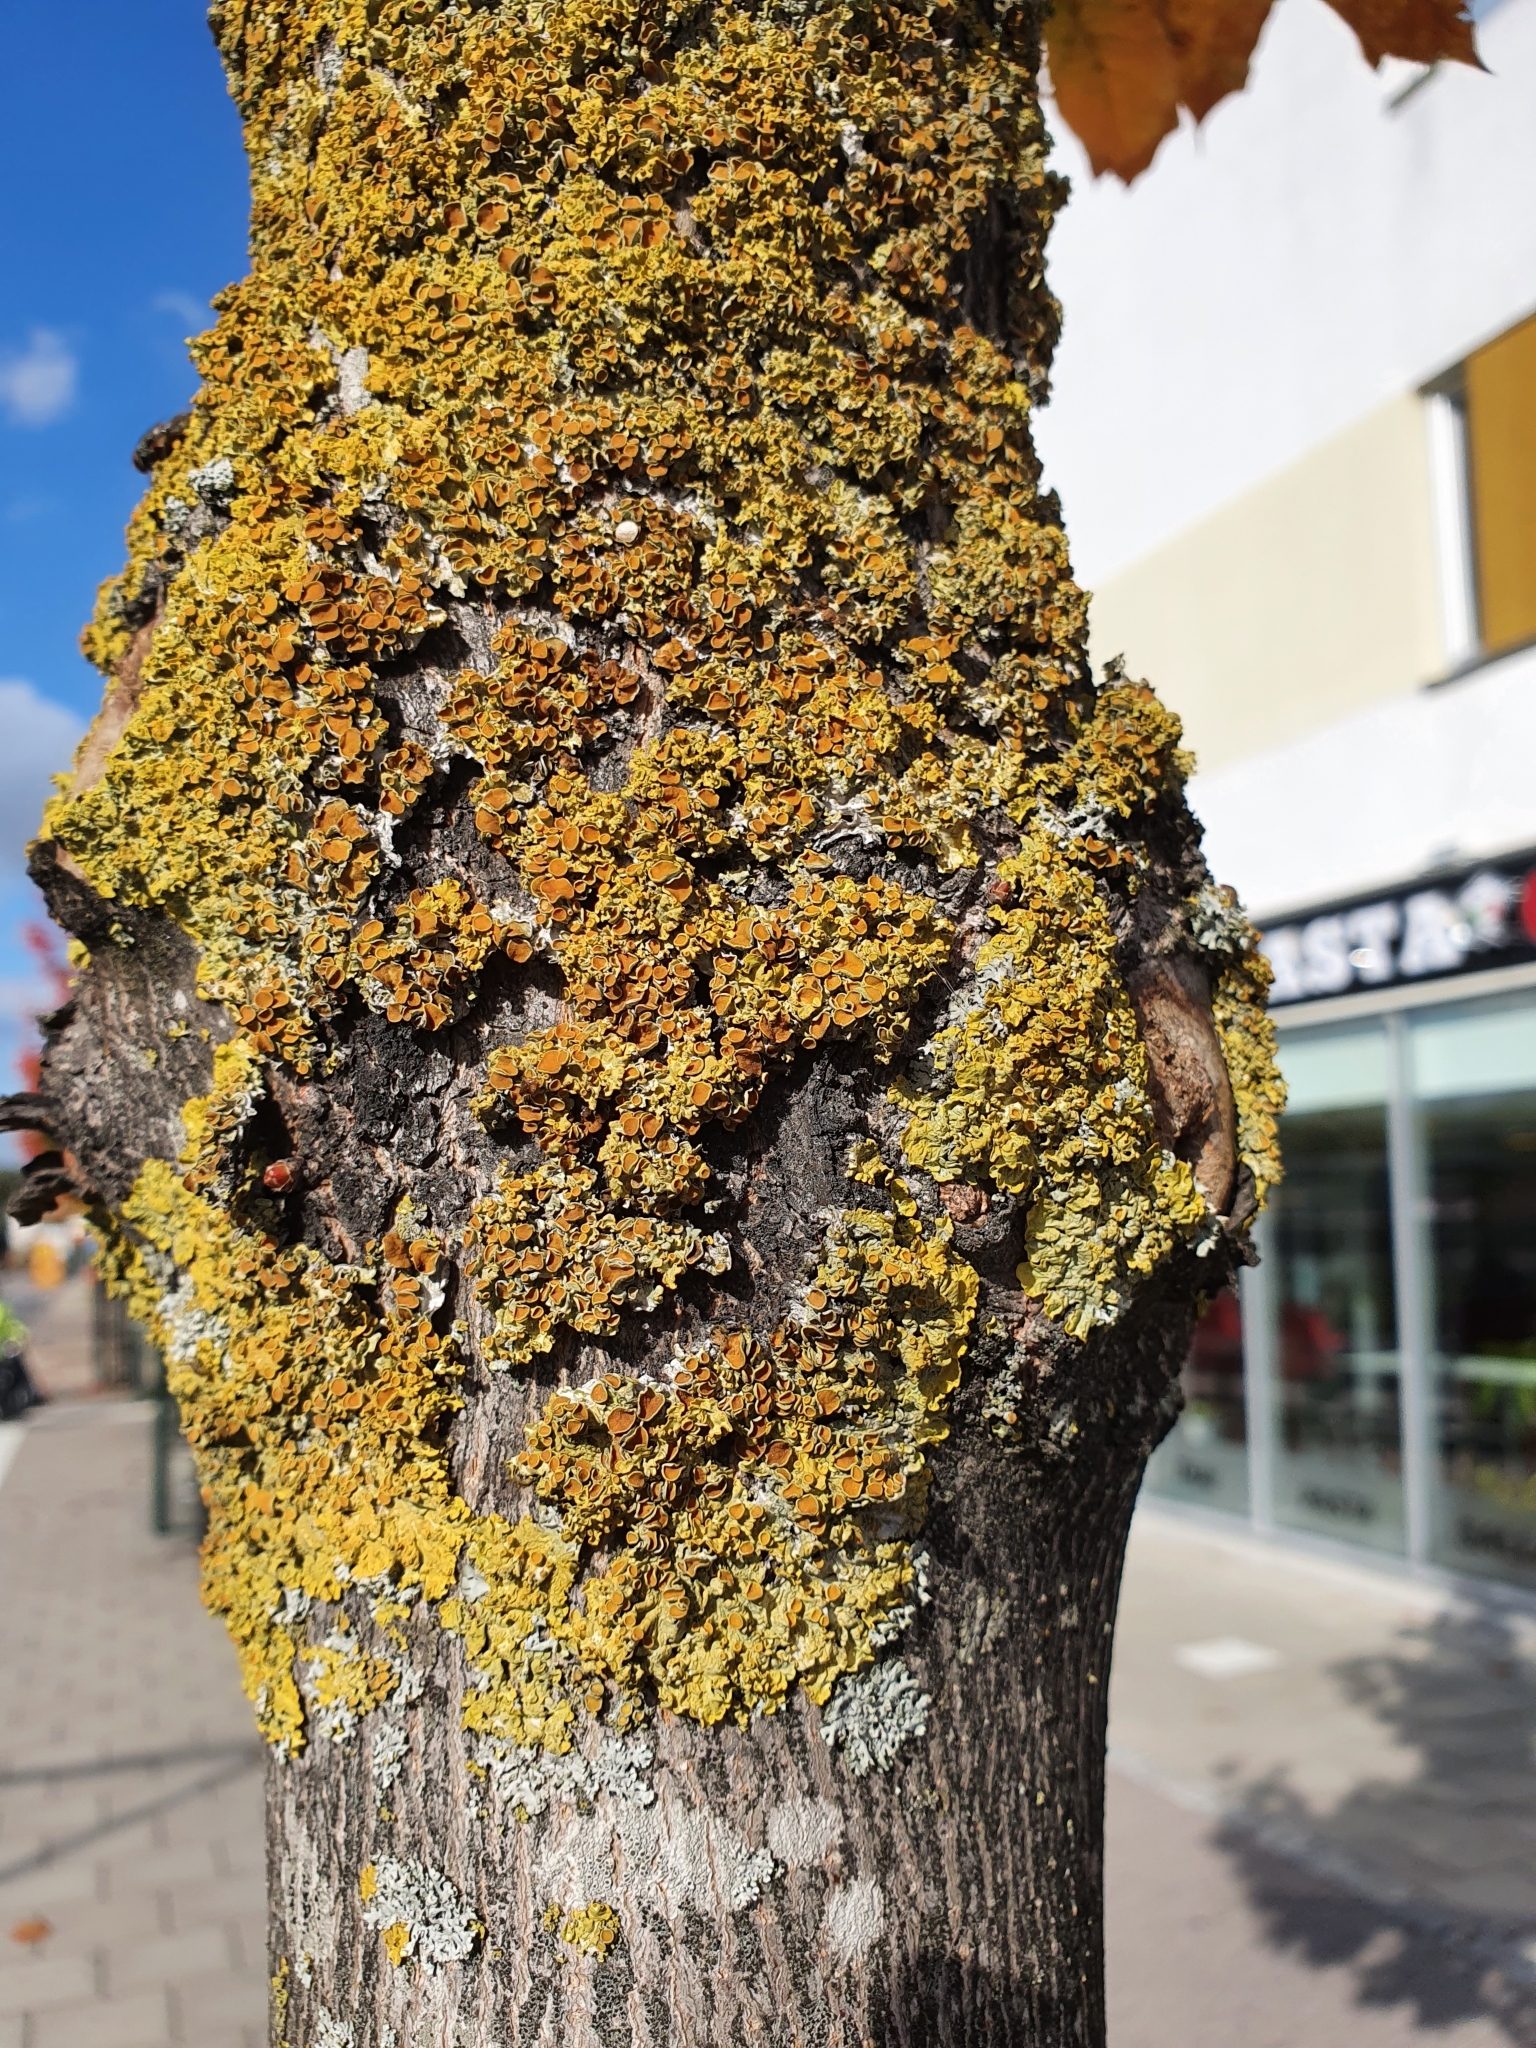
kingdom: Fungi
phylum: Ascomycota
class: Lecanoromycetes
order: Teloschistales
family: Teloschistaceae
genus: Xanthoria
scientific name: Xanthoria parietina
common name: Common orange lichen
